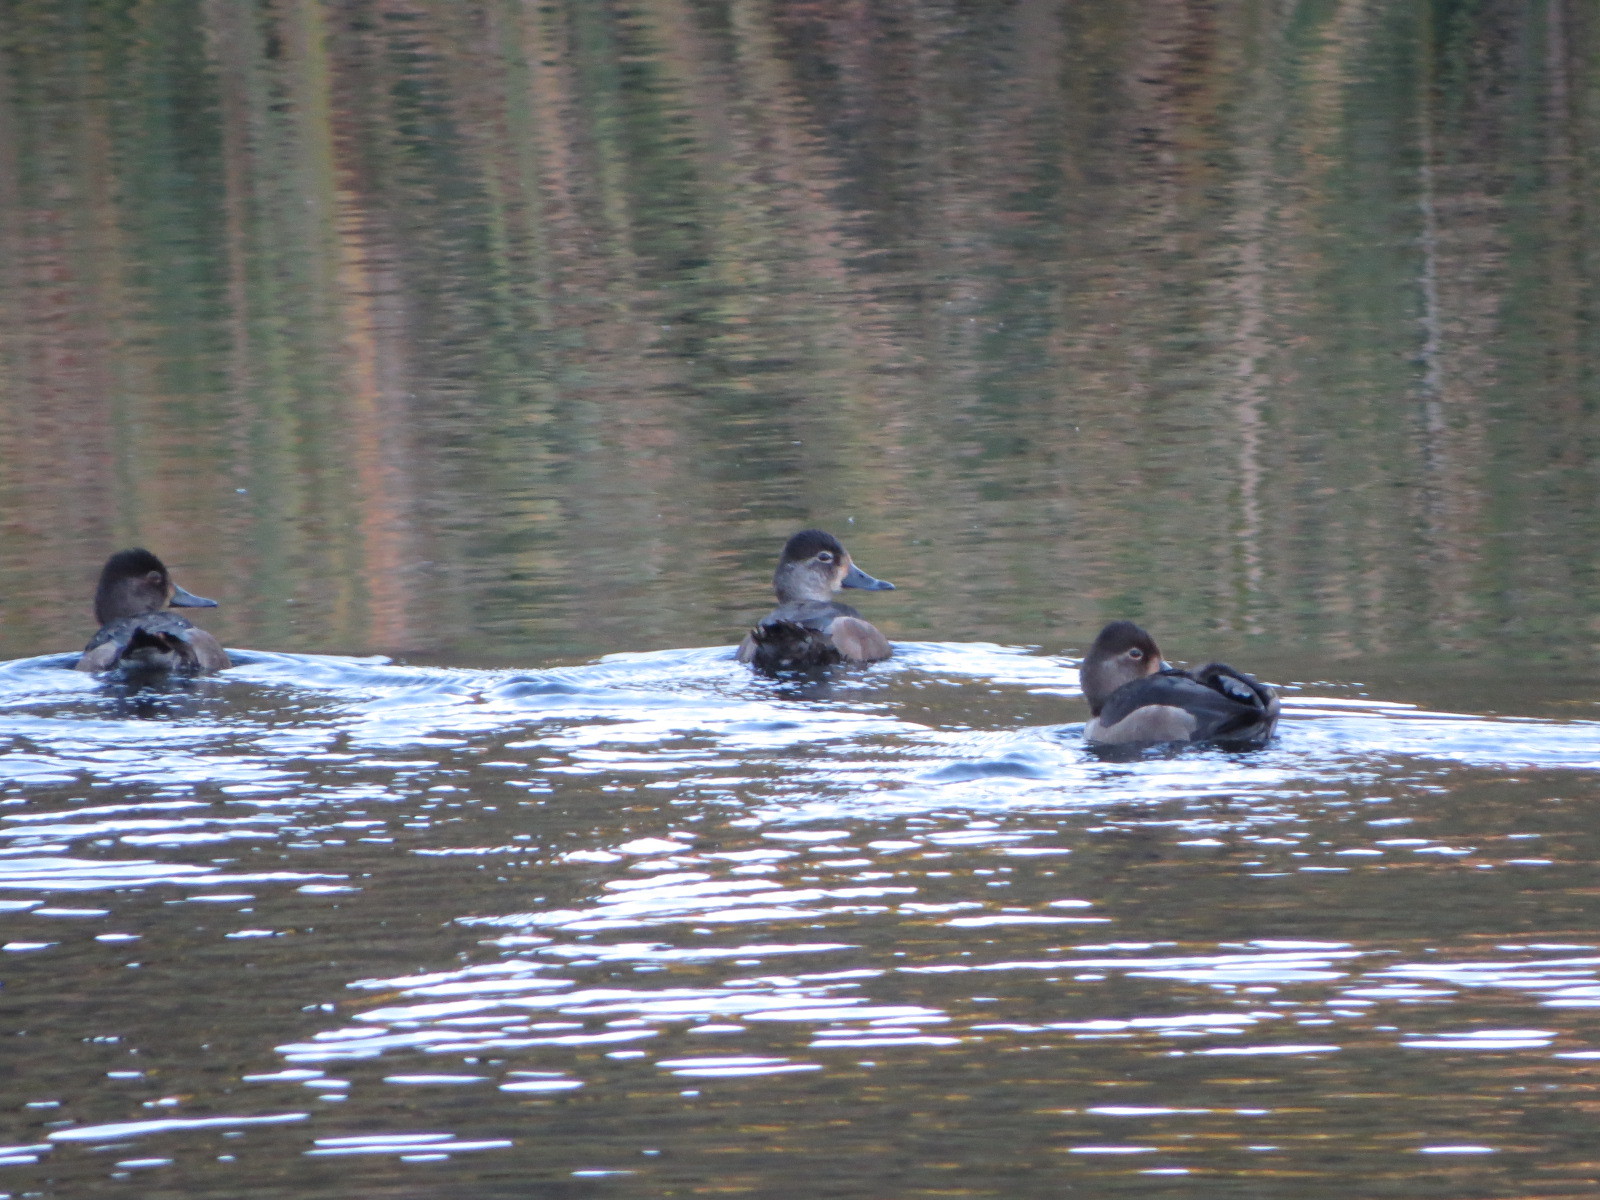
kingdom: Animalia
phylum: Chordata
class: Aves
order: Anseriformes
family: Anatidae
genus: Aythya
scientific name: Aythya collaris
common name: Ring-necked duck
